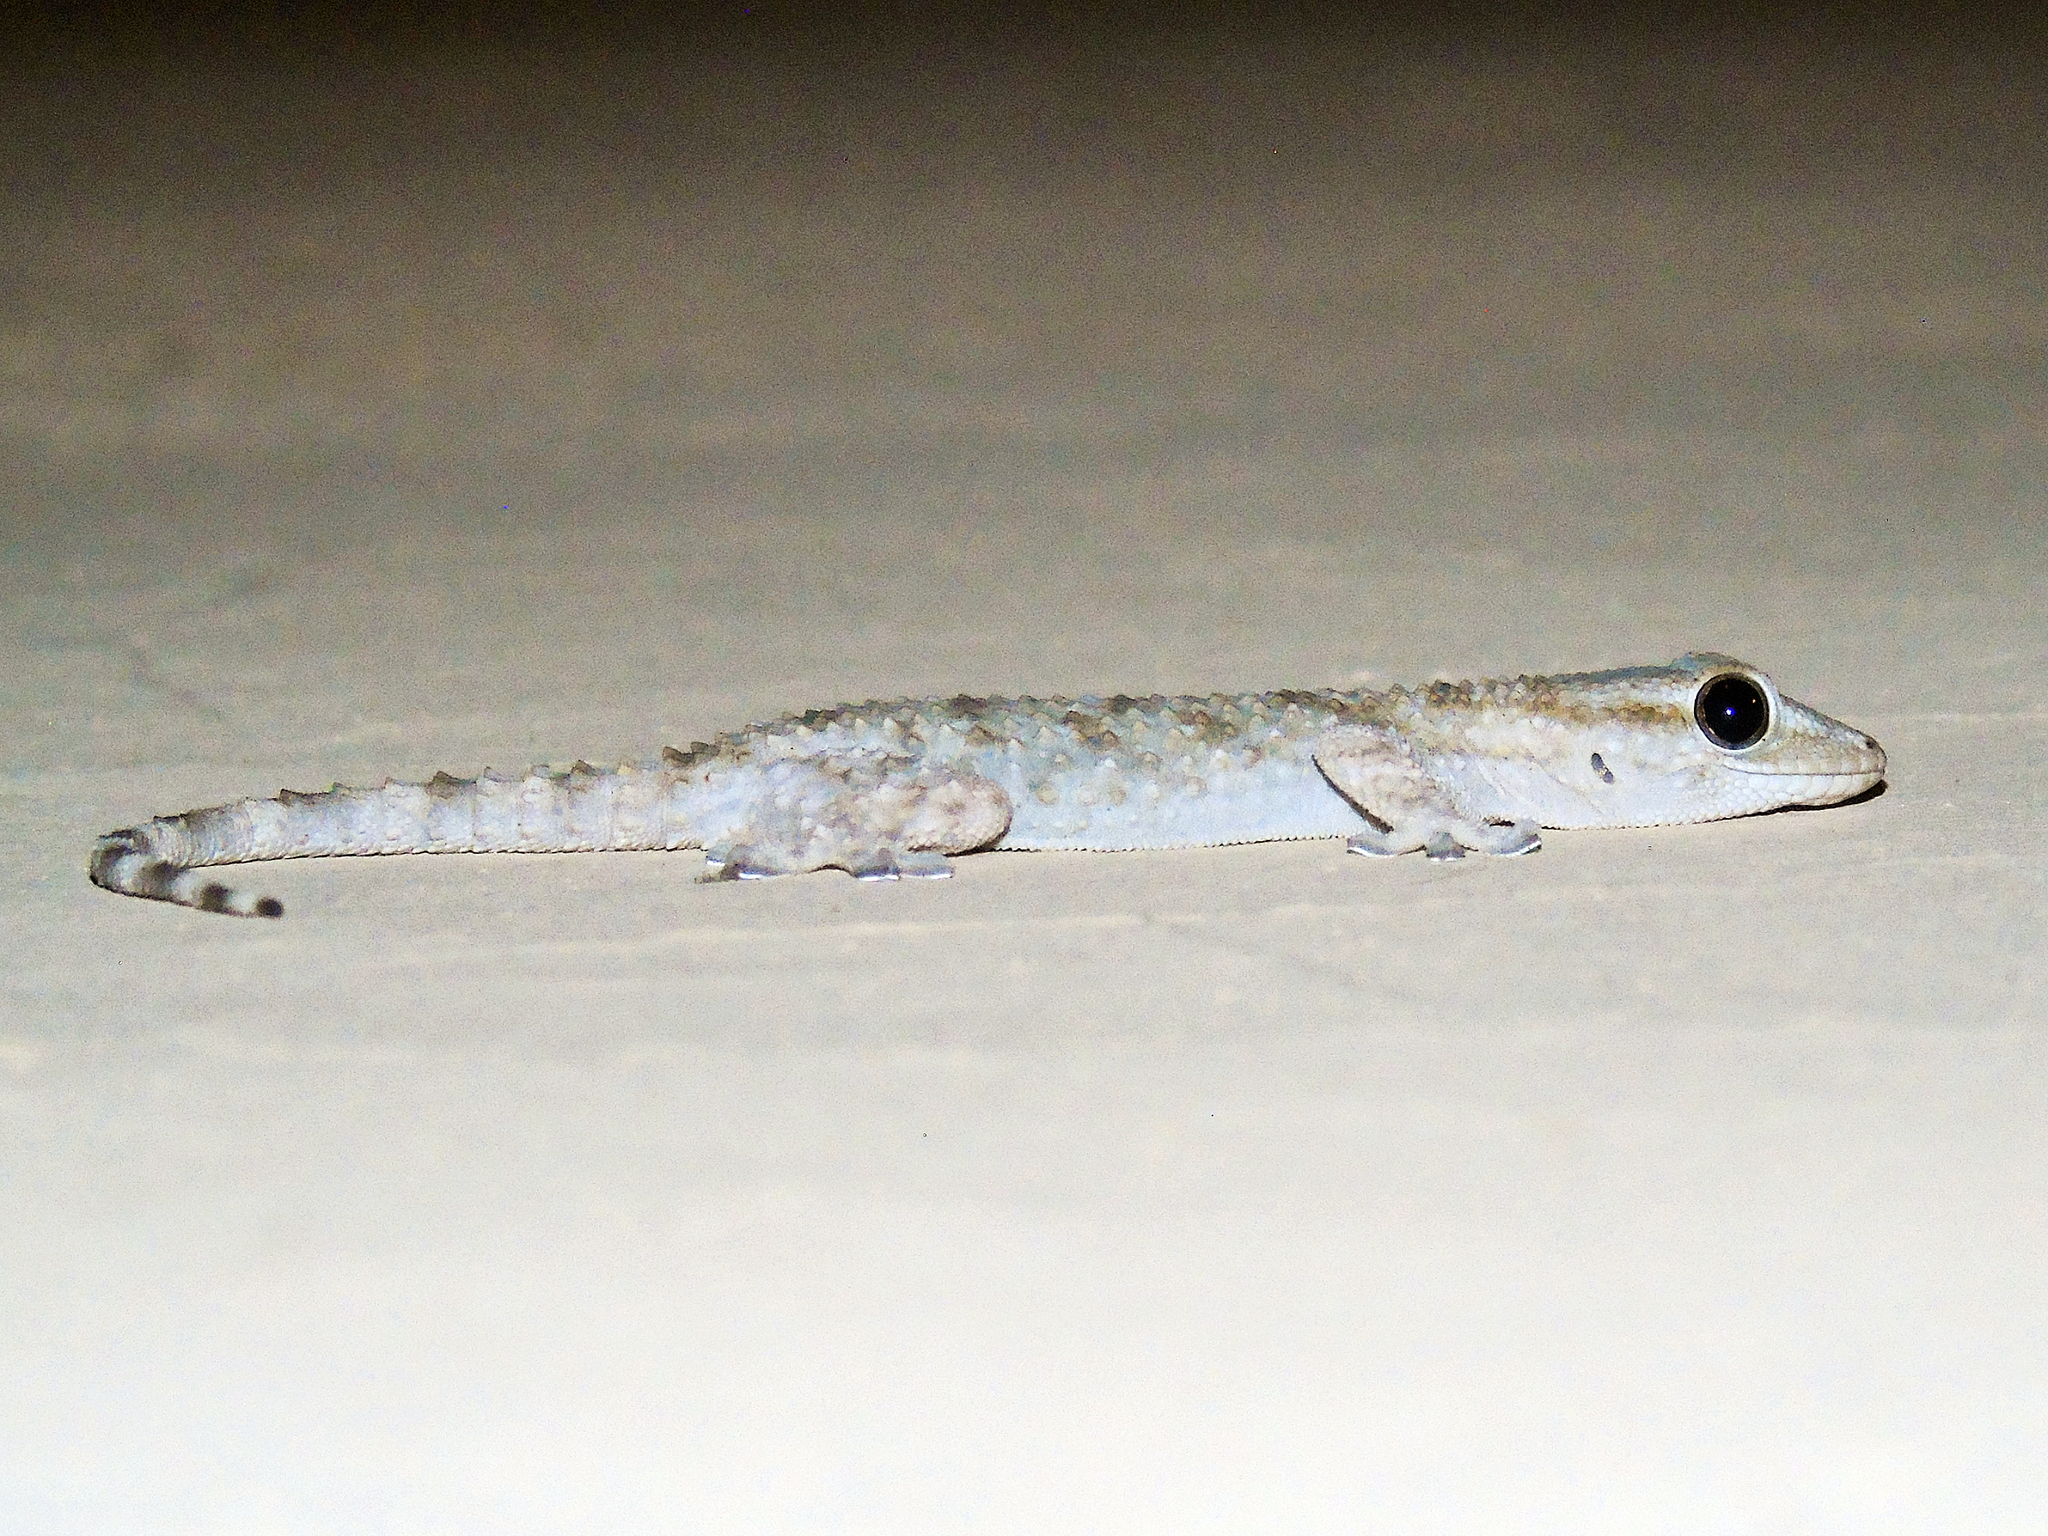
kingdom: Animalia
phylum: Chordata
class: Squamata
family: Phyllodactylidae
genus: Tarentola
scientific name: Tarentola mauritanica
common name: Moorish gecko
